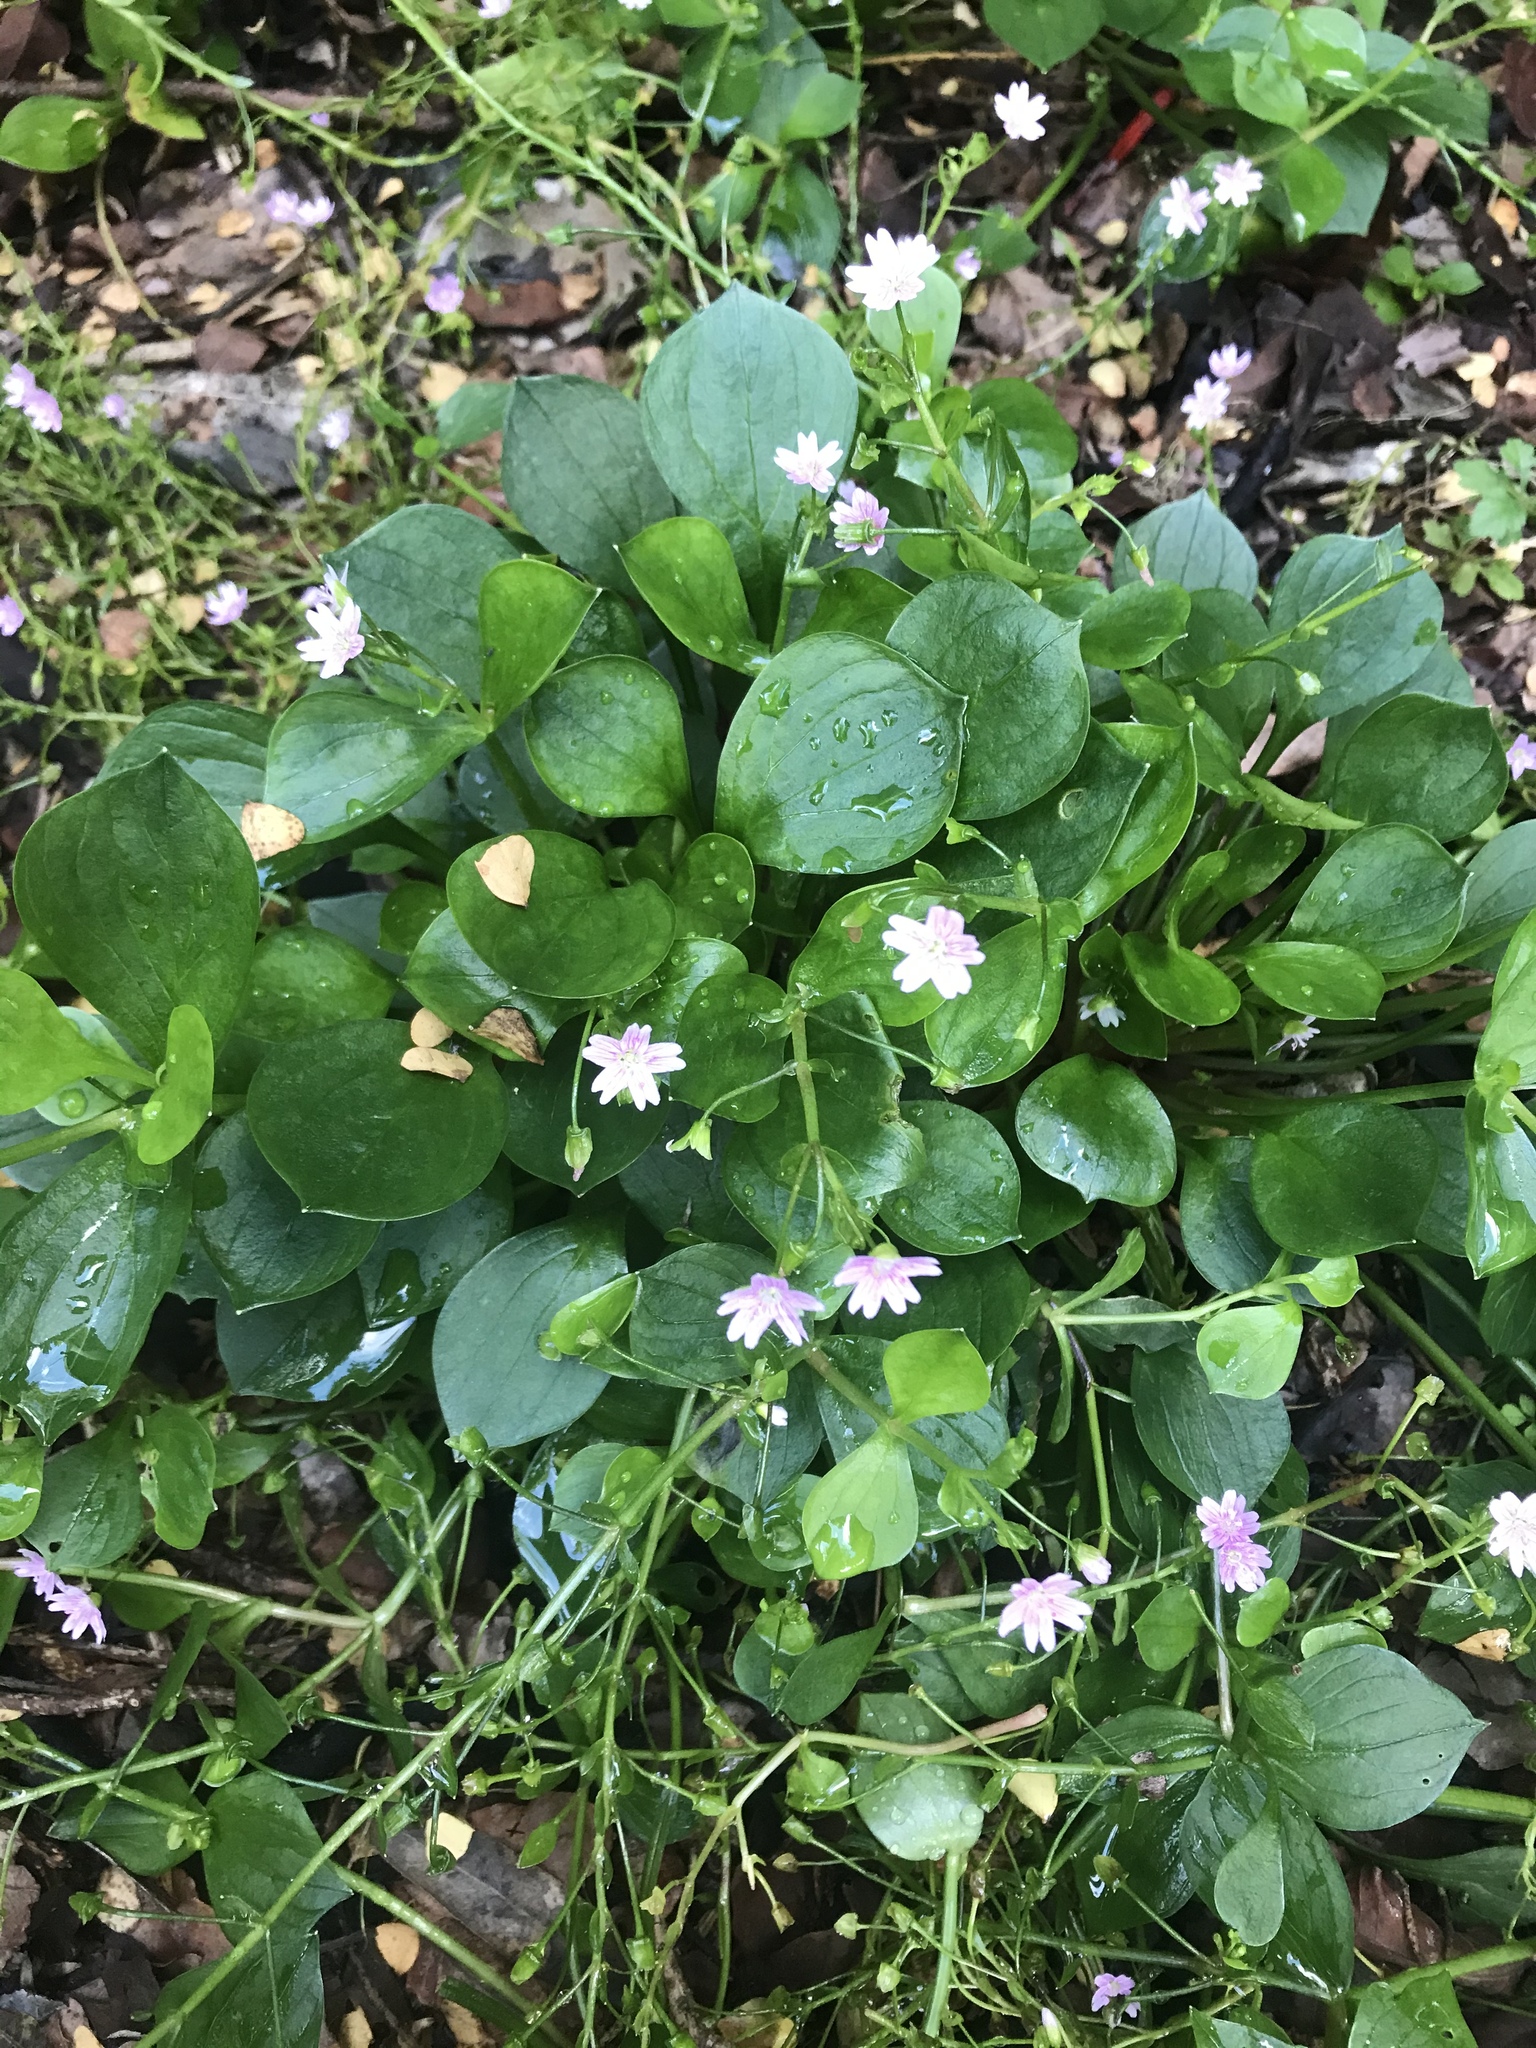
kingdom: Plantae
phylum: Tracheophyta
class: Magnoliopsida
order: Caryophyllales
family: Montiaceae
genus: Claytonia
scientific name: Claytonia sibirica
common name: Pink purslane
